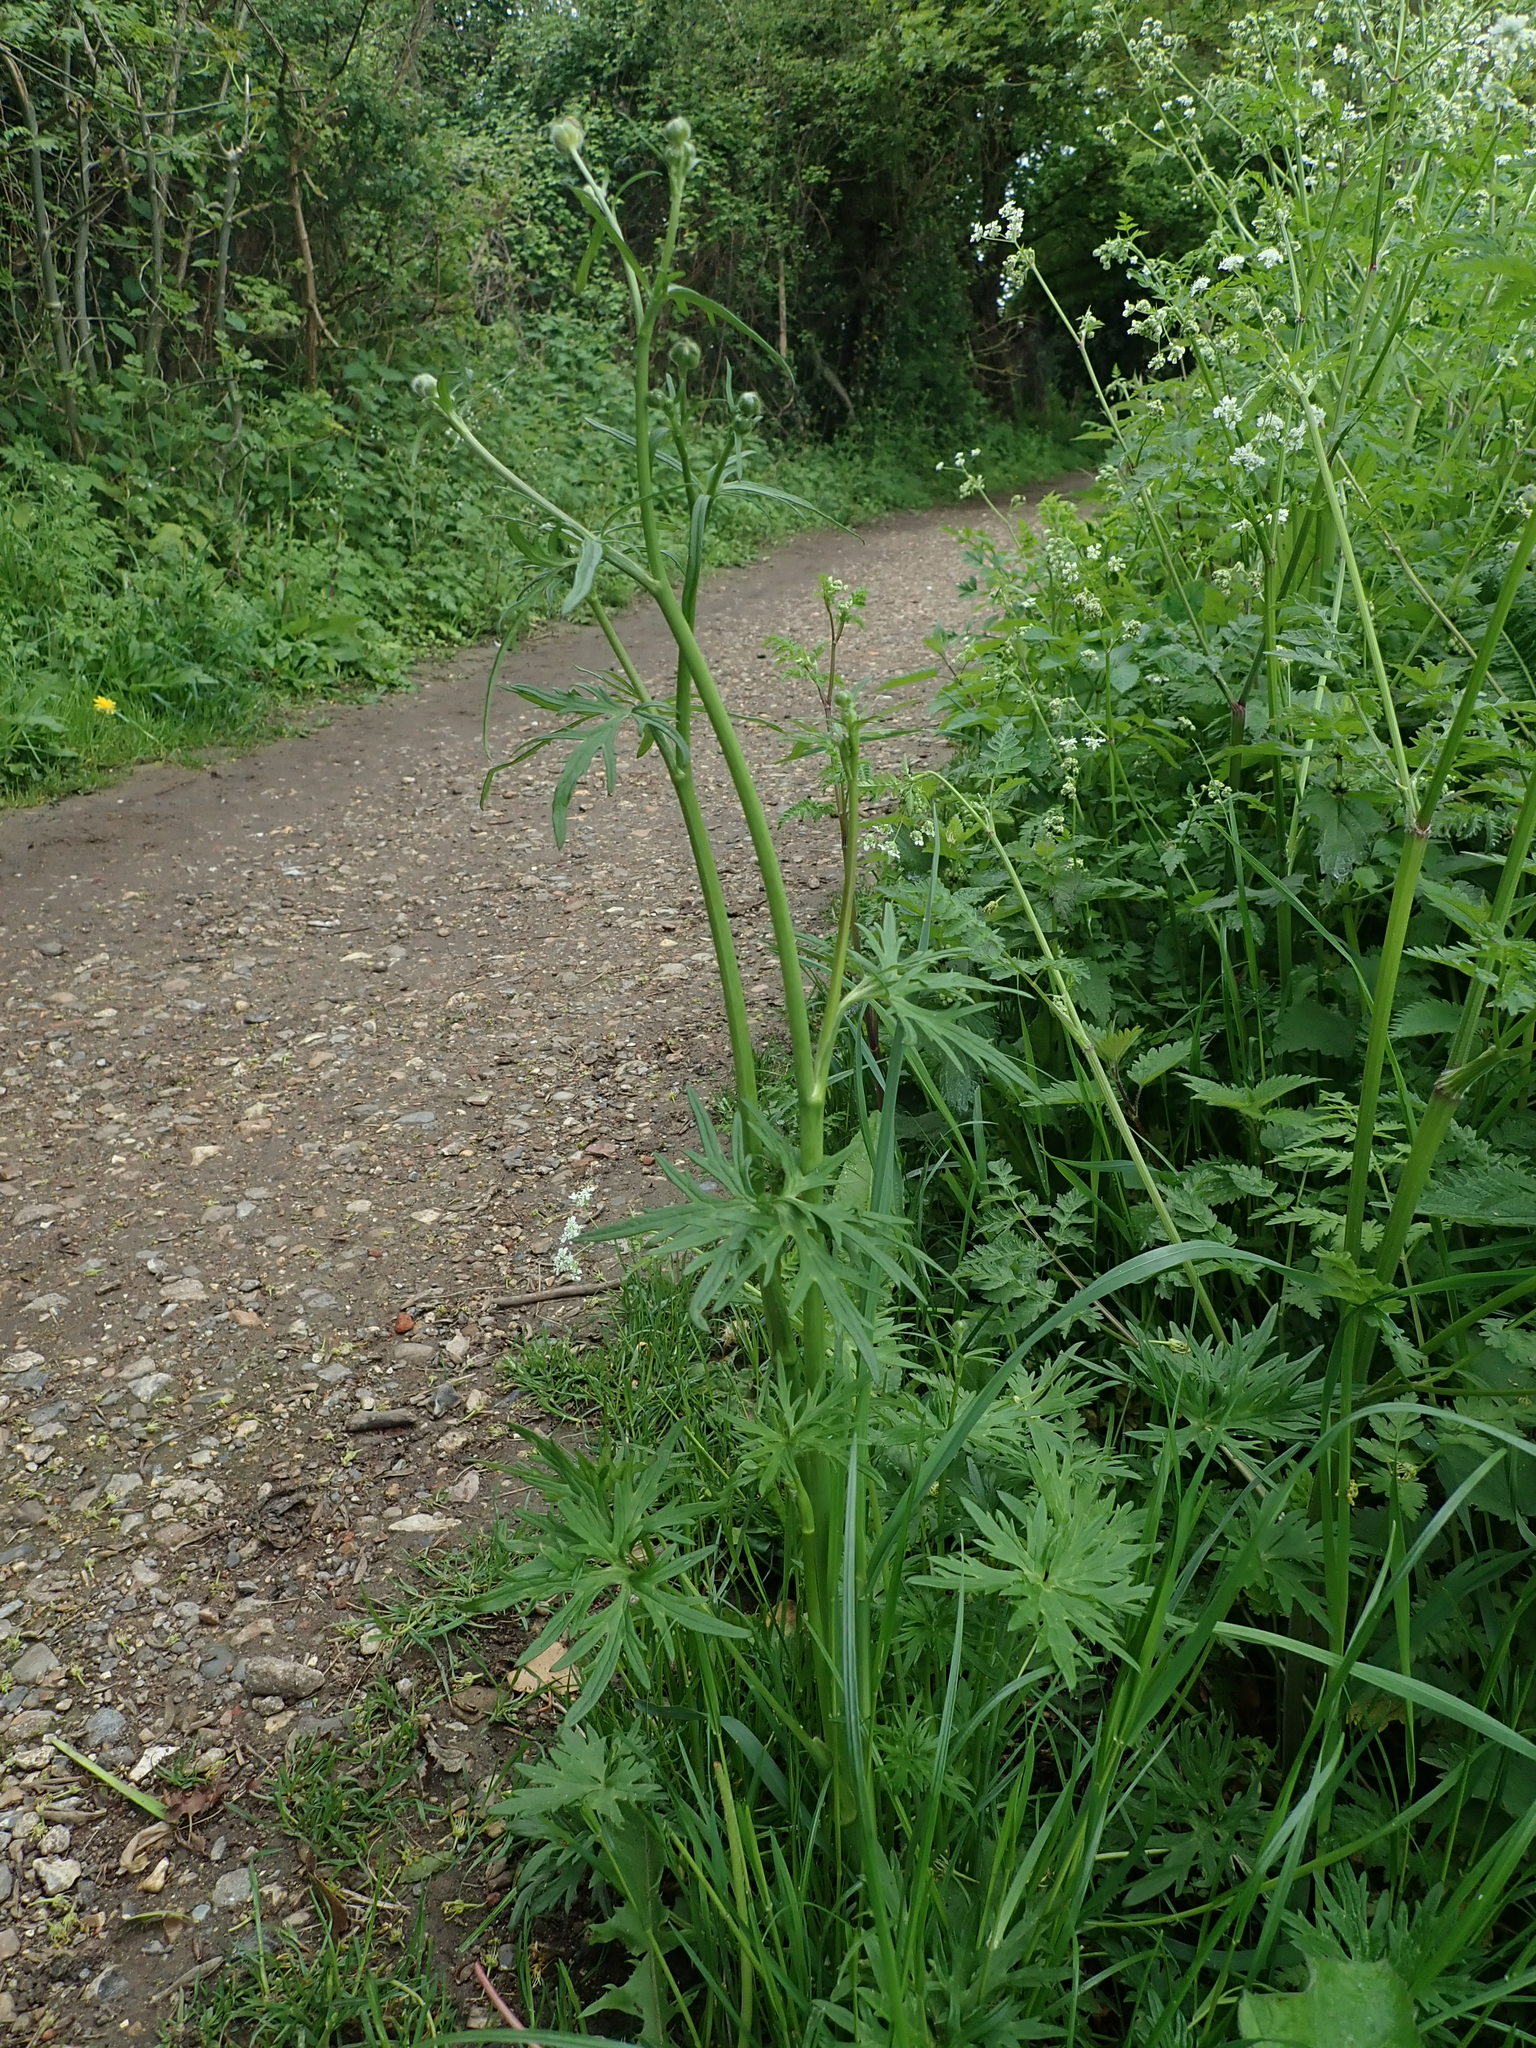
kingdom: Plantae
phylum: Tracheophyta
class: Magnoliopsida
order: Ranunculales
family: Ranunculaceae
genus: Ranunculus
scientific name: Ranunculus acris
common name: Meadow buttercup
